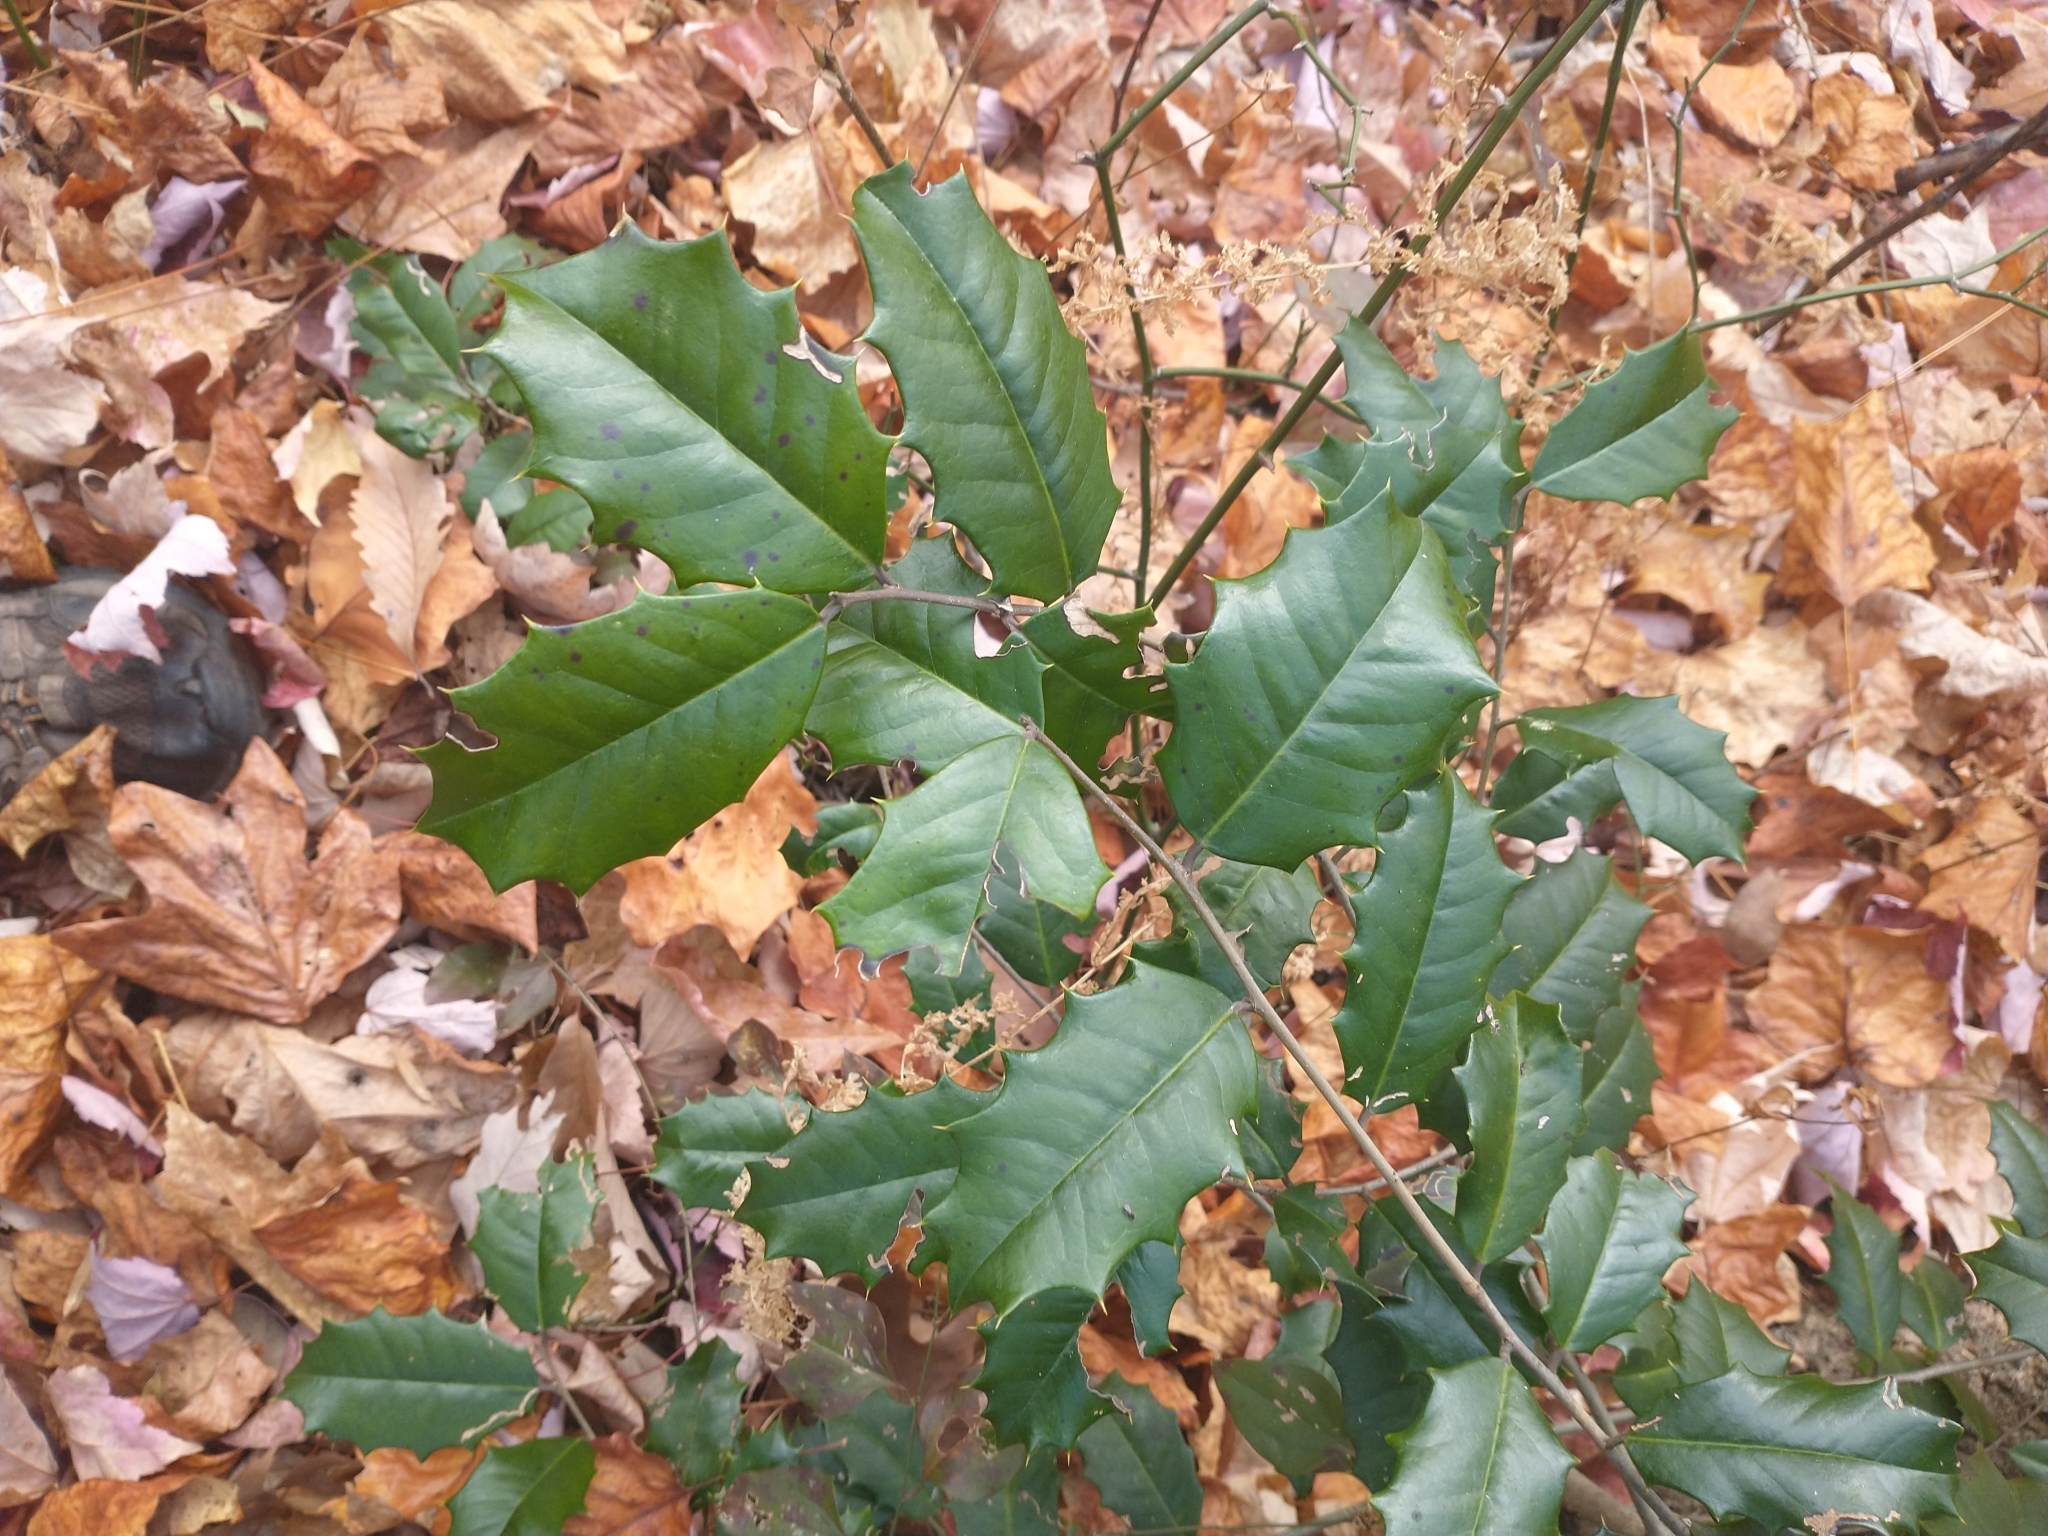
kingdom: Plantae
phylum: Tracheophyta
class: Magnoliopsida
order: Aquifoliales
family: Aquifoliaceae
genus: Ilex
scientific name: Ilex opaca
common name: American holly
